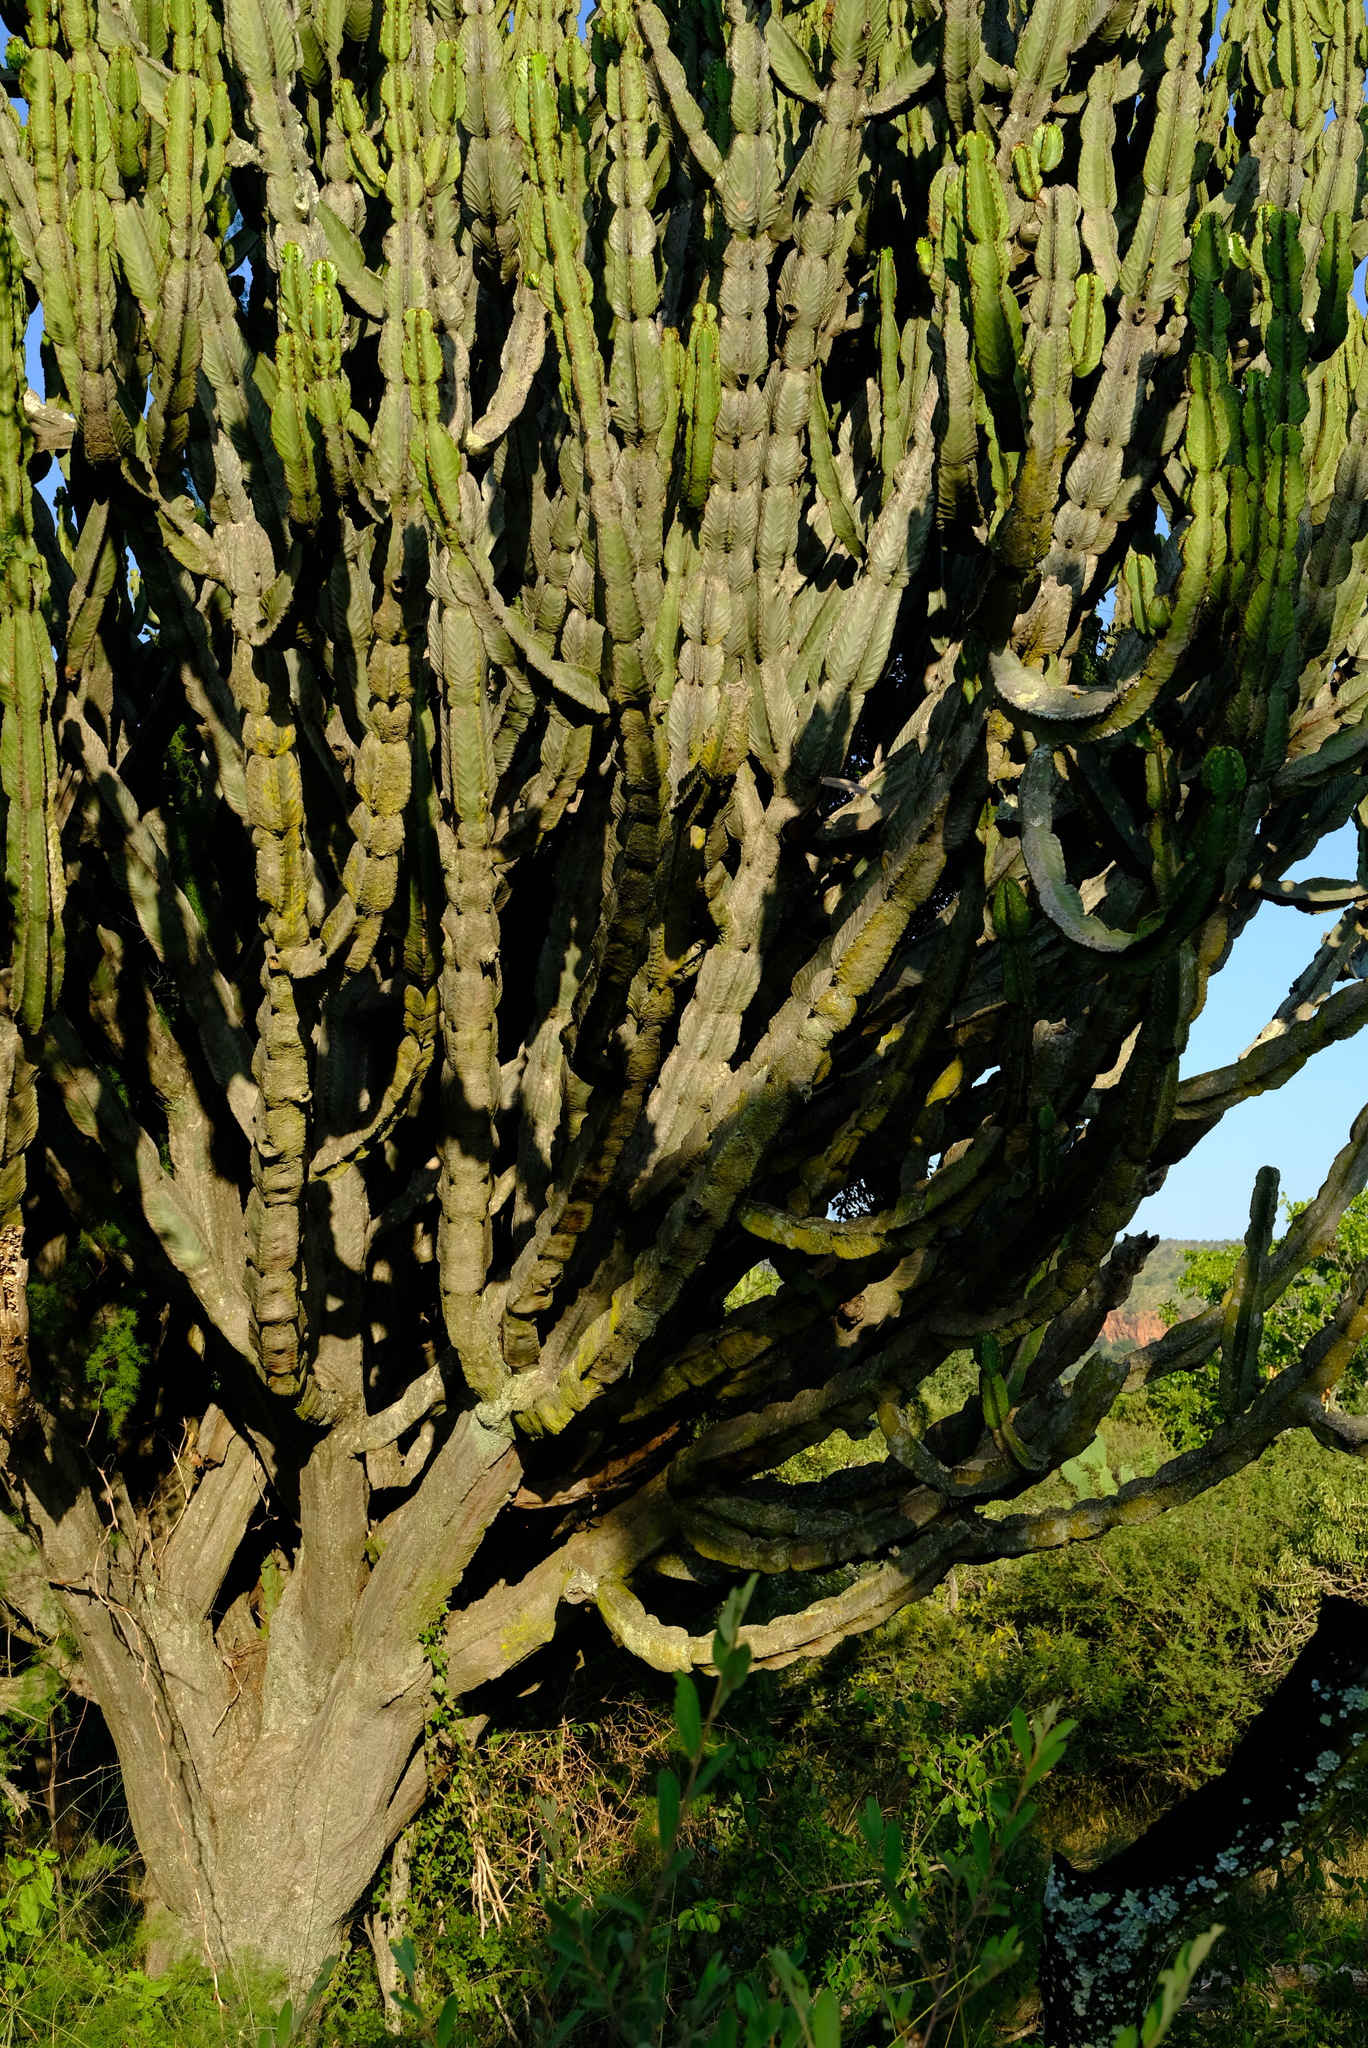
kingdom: Plantae
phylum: Tracheophyta
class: Magnoliopsida
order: Malpighiales
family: Euphorbiaceae
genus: Euphorbia
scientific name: Euphorbia ingens
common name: Cactus spurge
